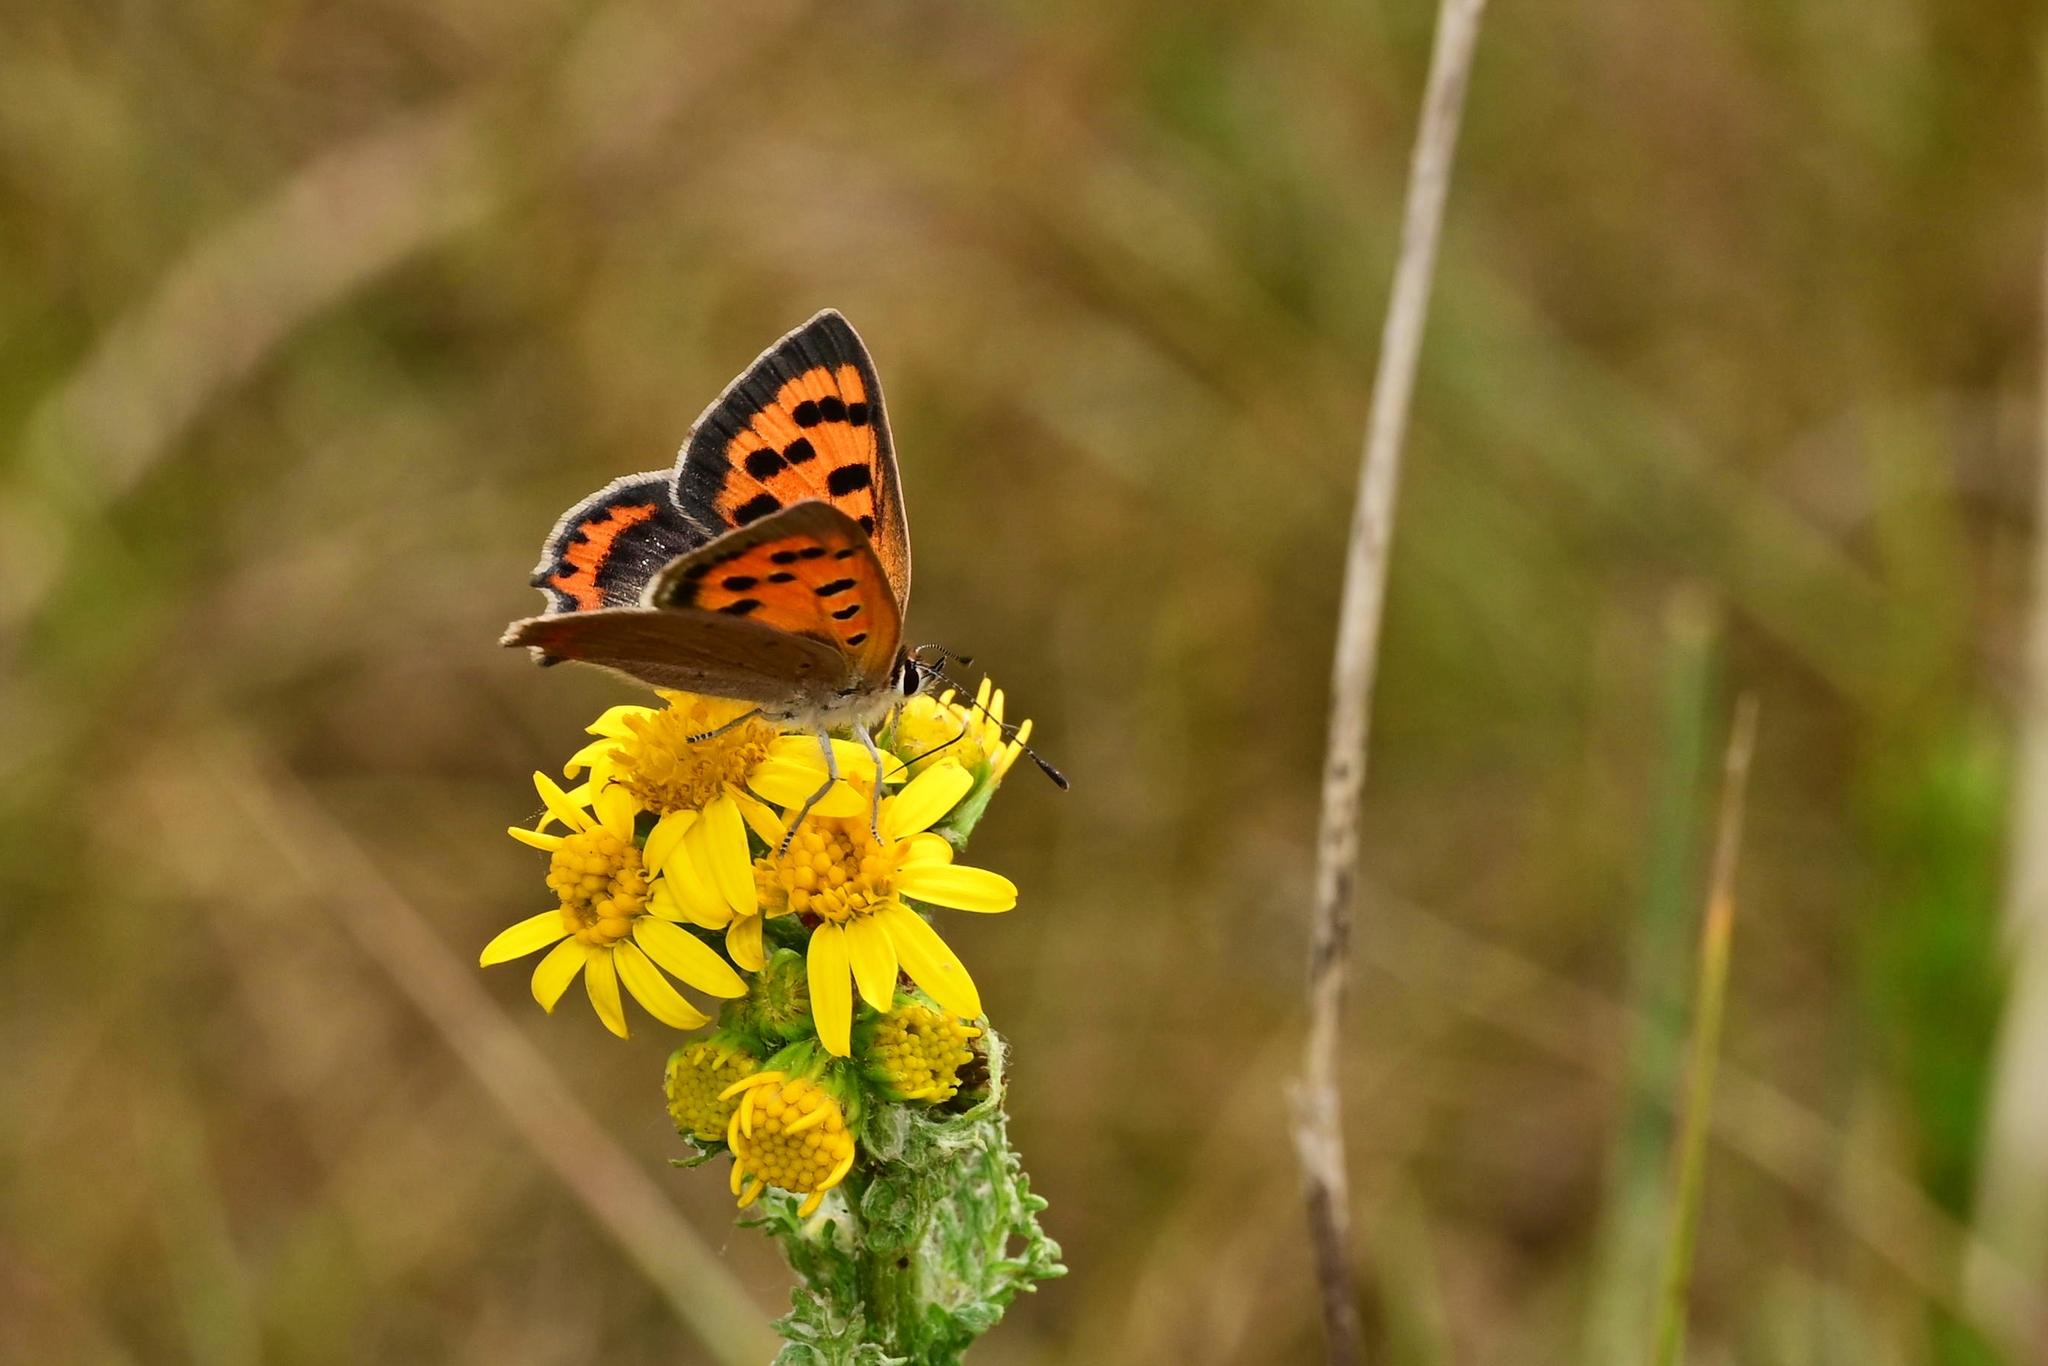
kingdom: Animalia
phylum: Arthropoda
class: Insecta
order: Lepidoptera
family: Lycaenidae
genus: Lycaena
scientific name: Lycaena phlaeas
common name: Small copper
